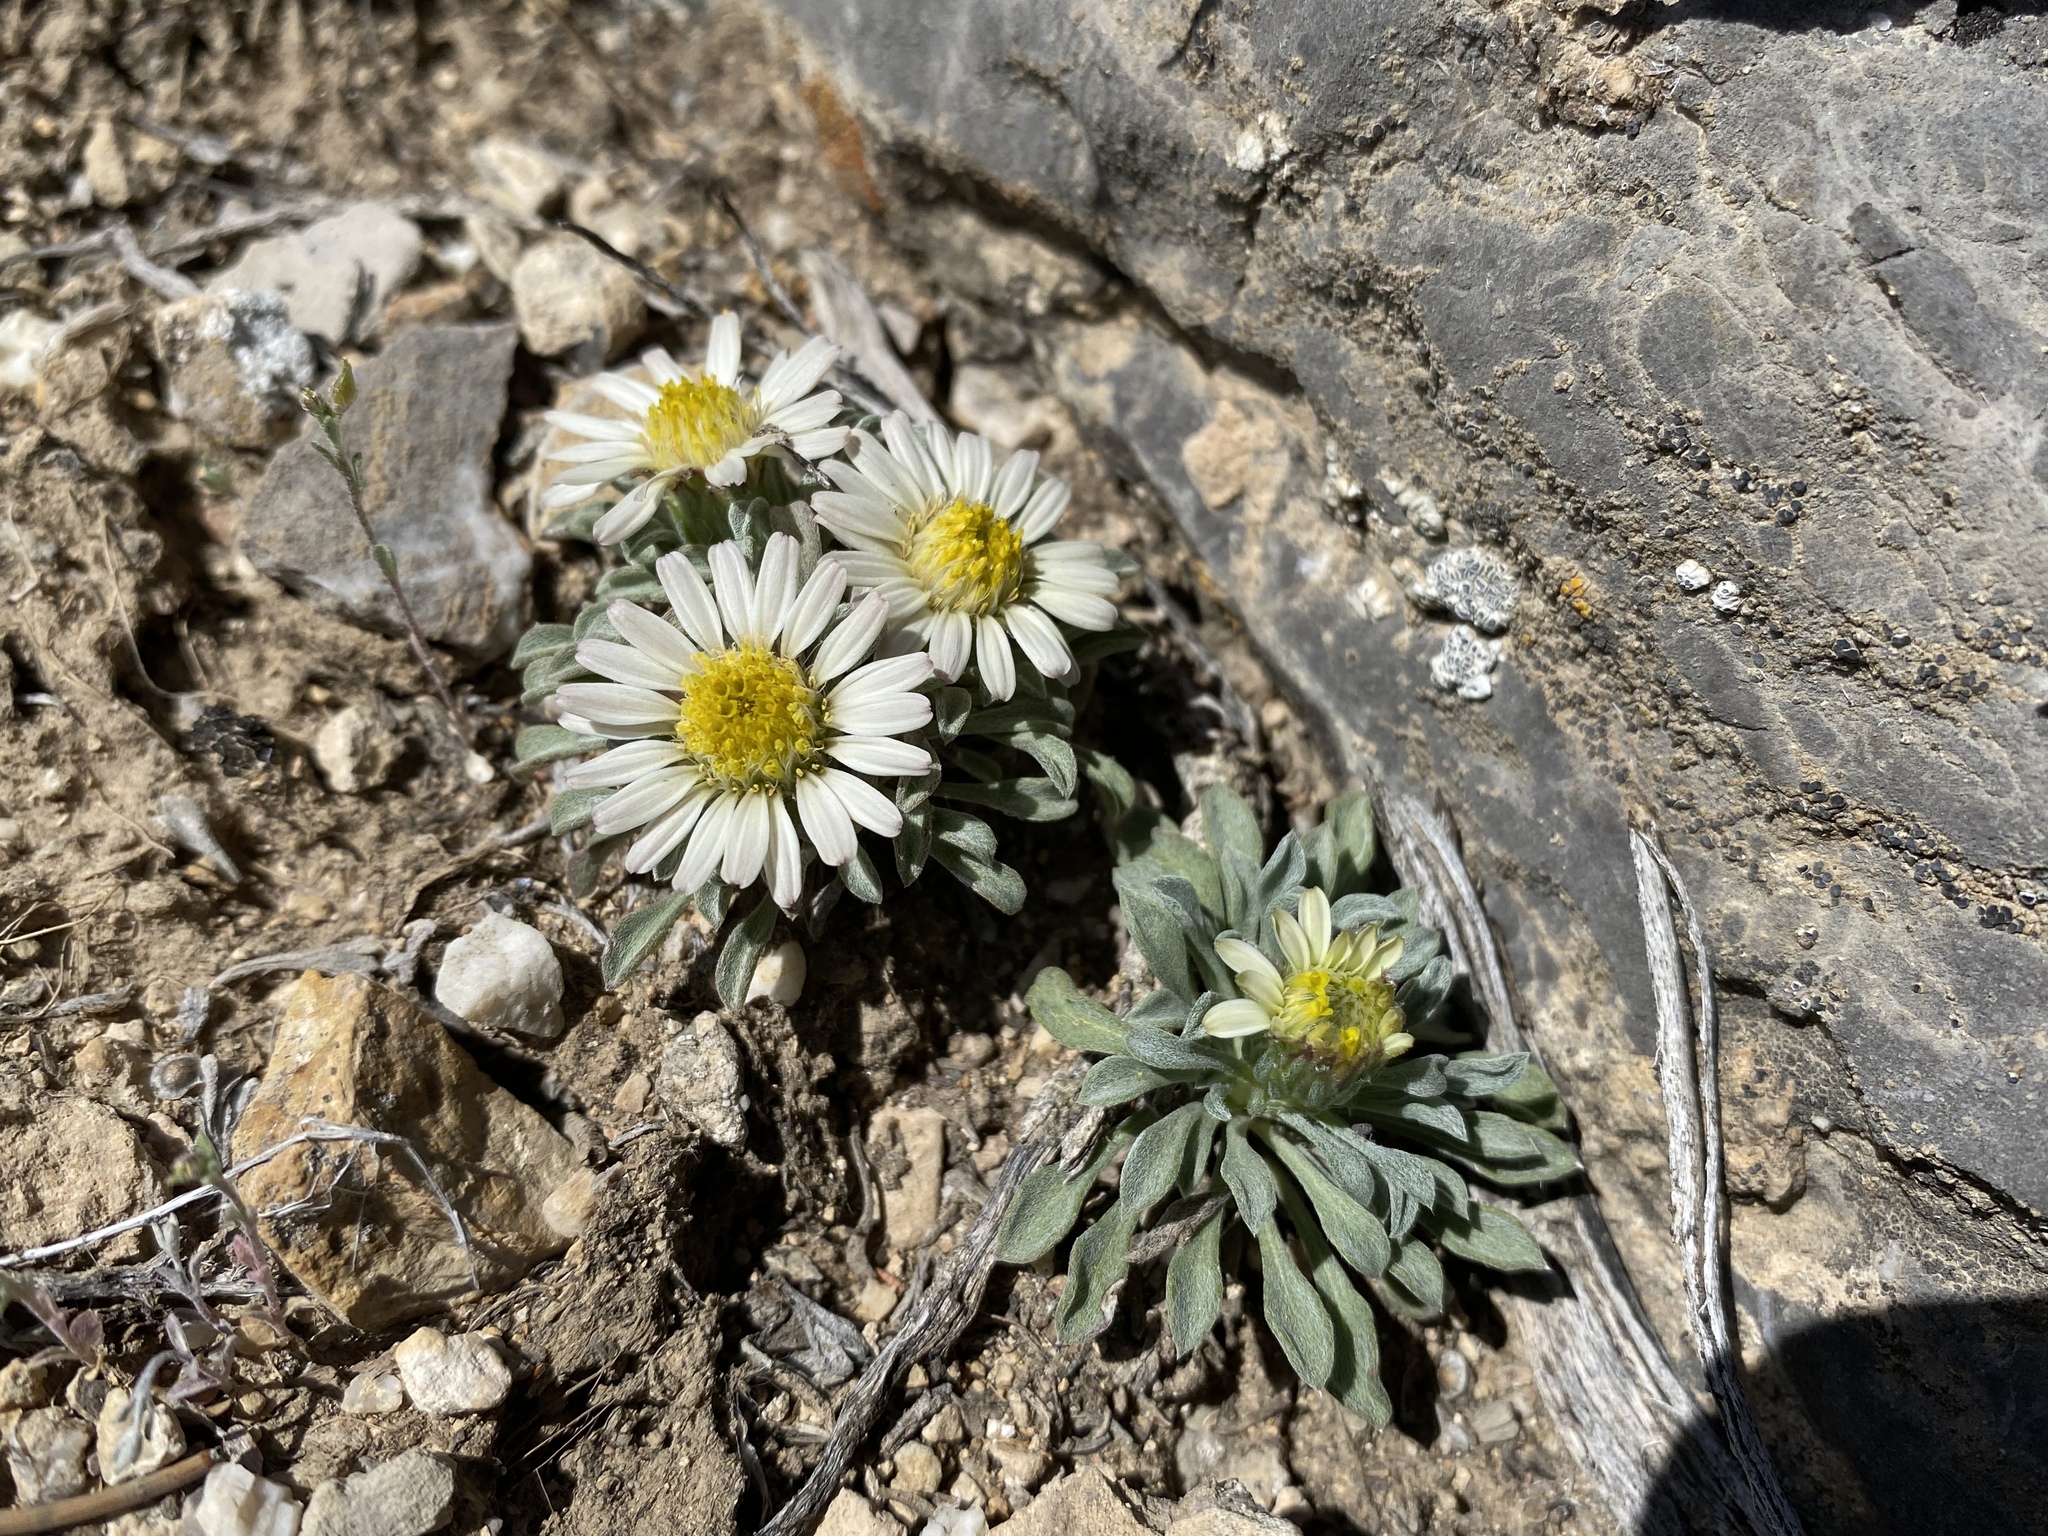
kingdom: Plantae
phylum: Tracheophyta
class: Magnoliopsida
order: Asterales
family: Asteraceae
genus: Townsendia
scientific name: Townsendia jonesii
